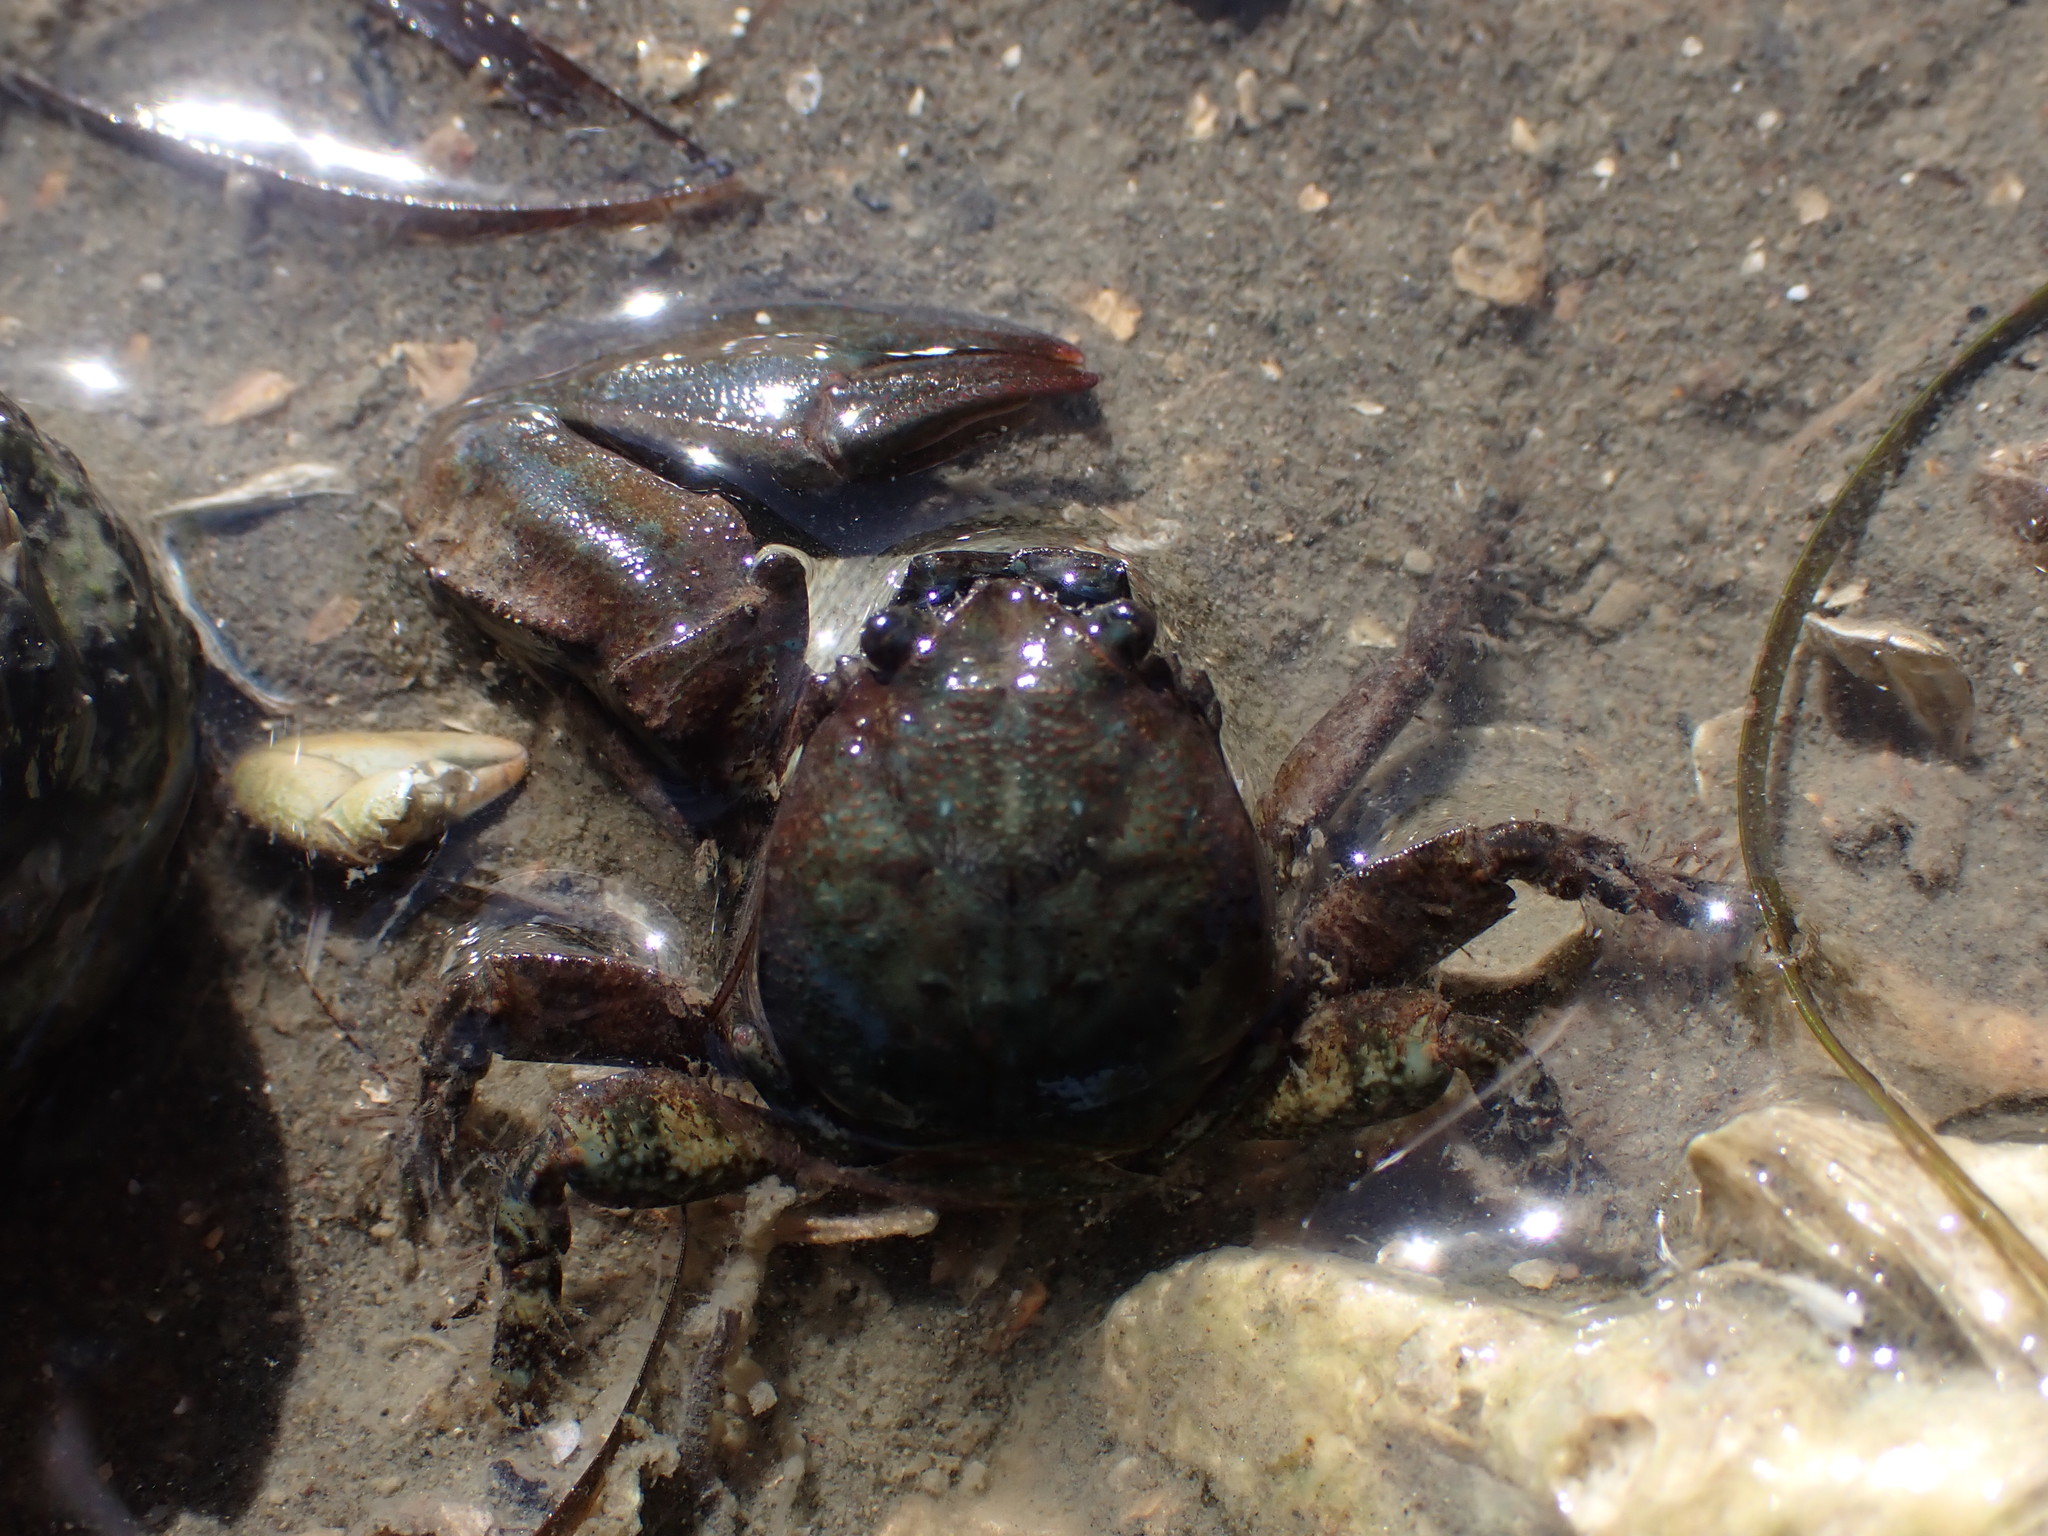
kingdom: Animalia
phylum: Arthropoda
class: Malacostraca
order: Decapoda
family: Porcellanidae
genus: Petrolisthes
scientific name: Petrolisthes elongatus
